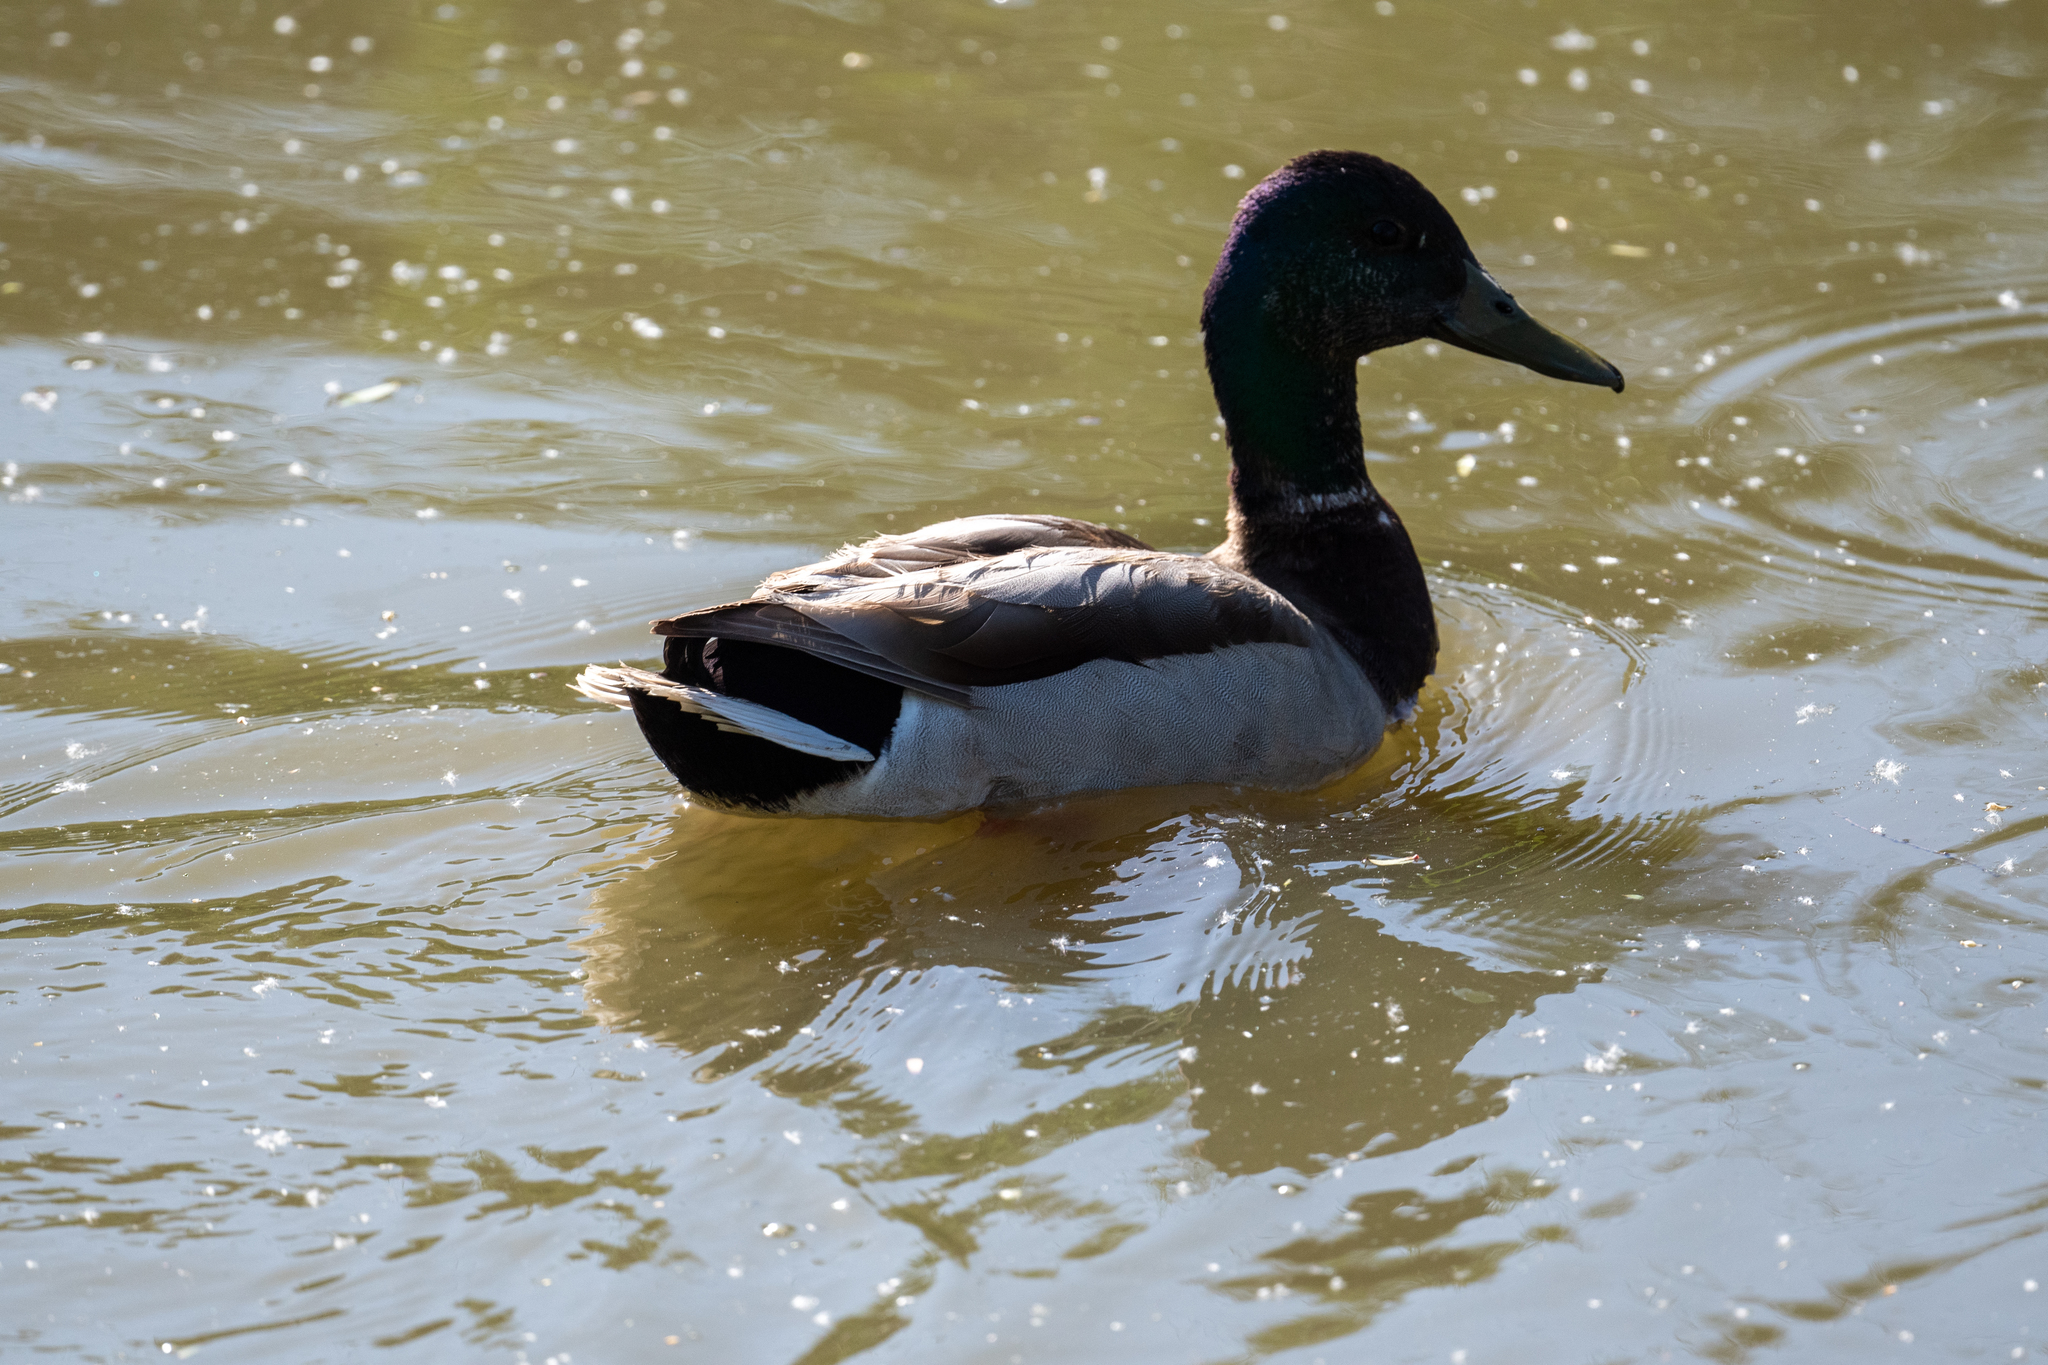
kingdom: Animalia
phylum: Chordata
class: Aves
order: Anseriformes
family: Anatidae
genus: Anas
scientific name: Anas platyrhynchos
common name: Mallard
